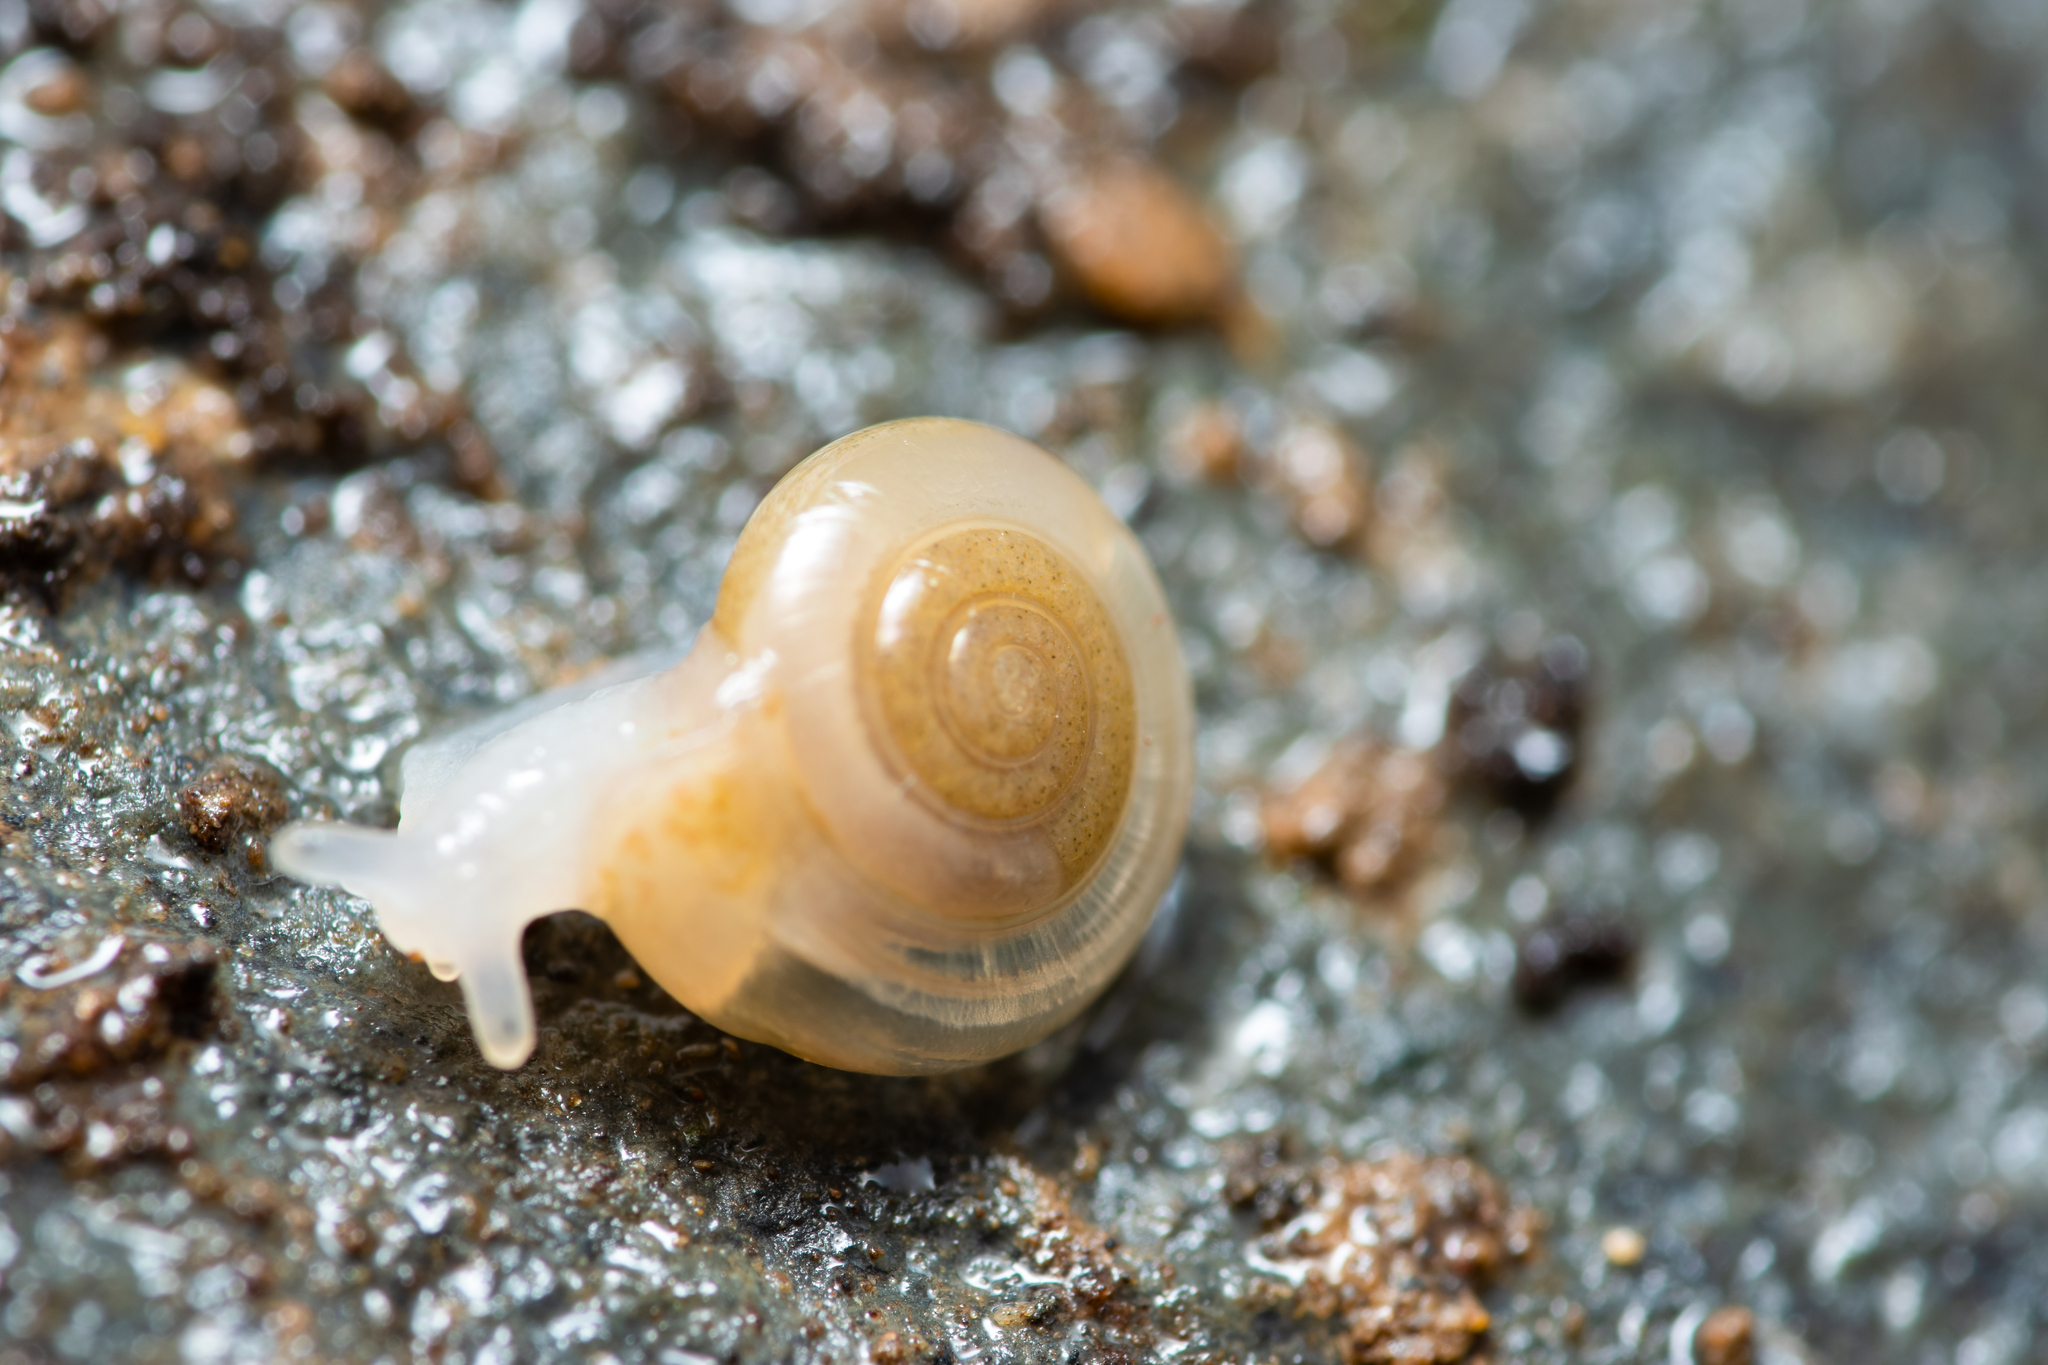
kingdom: Animalia
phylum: Mollusca
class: Gastropoda
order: Stylommatophora
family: Pristilomatidae
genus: Vitrea
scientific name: Vitrea contracta
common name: Milky crystal snail
